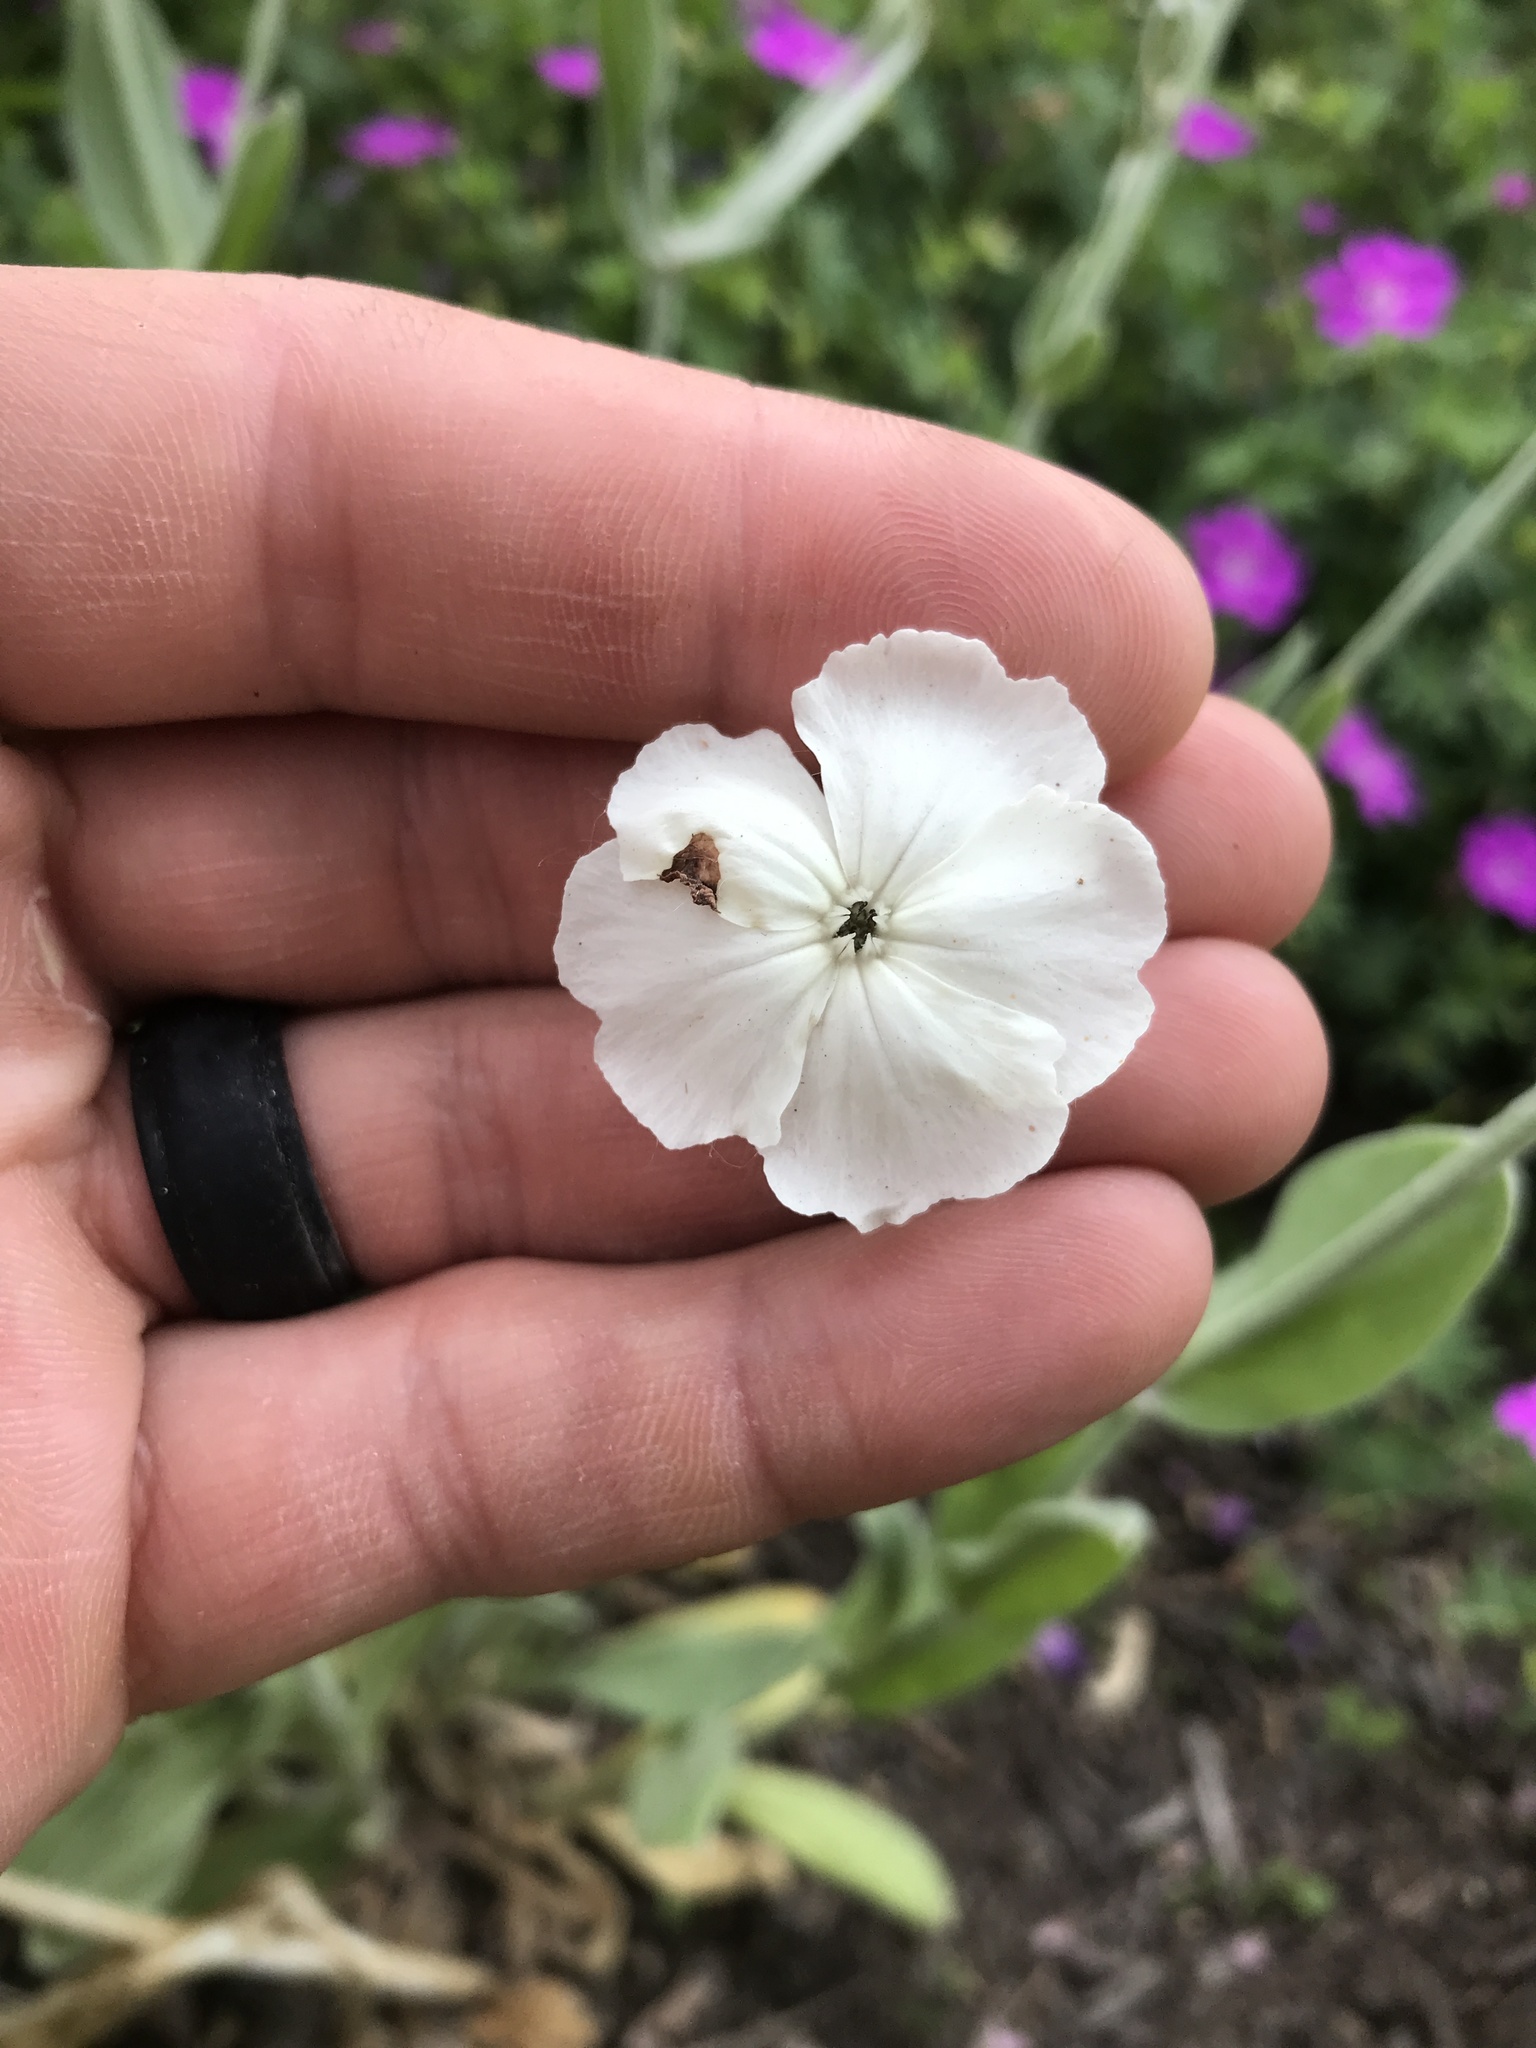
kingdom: Plantae
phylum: Tracheophyta
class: Magnoliopsida
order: Caryophyllales
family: Caryophyllaceae
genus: Silene
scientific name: Silene coronaria
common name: Rose campion
